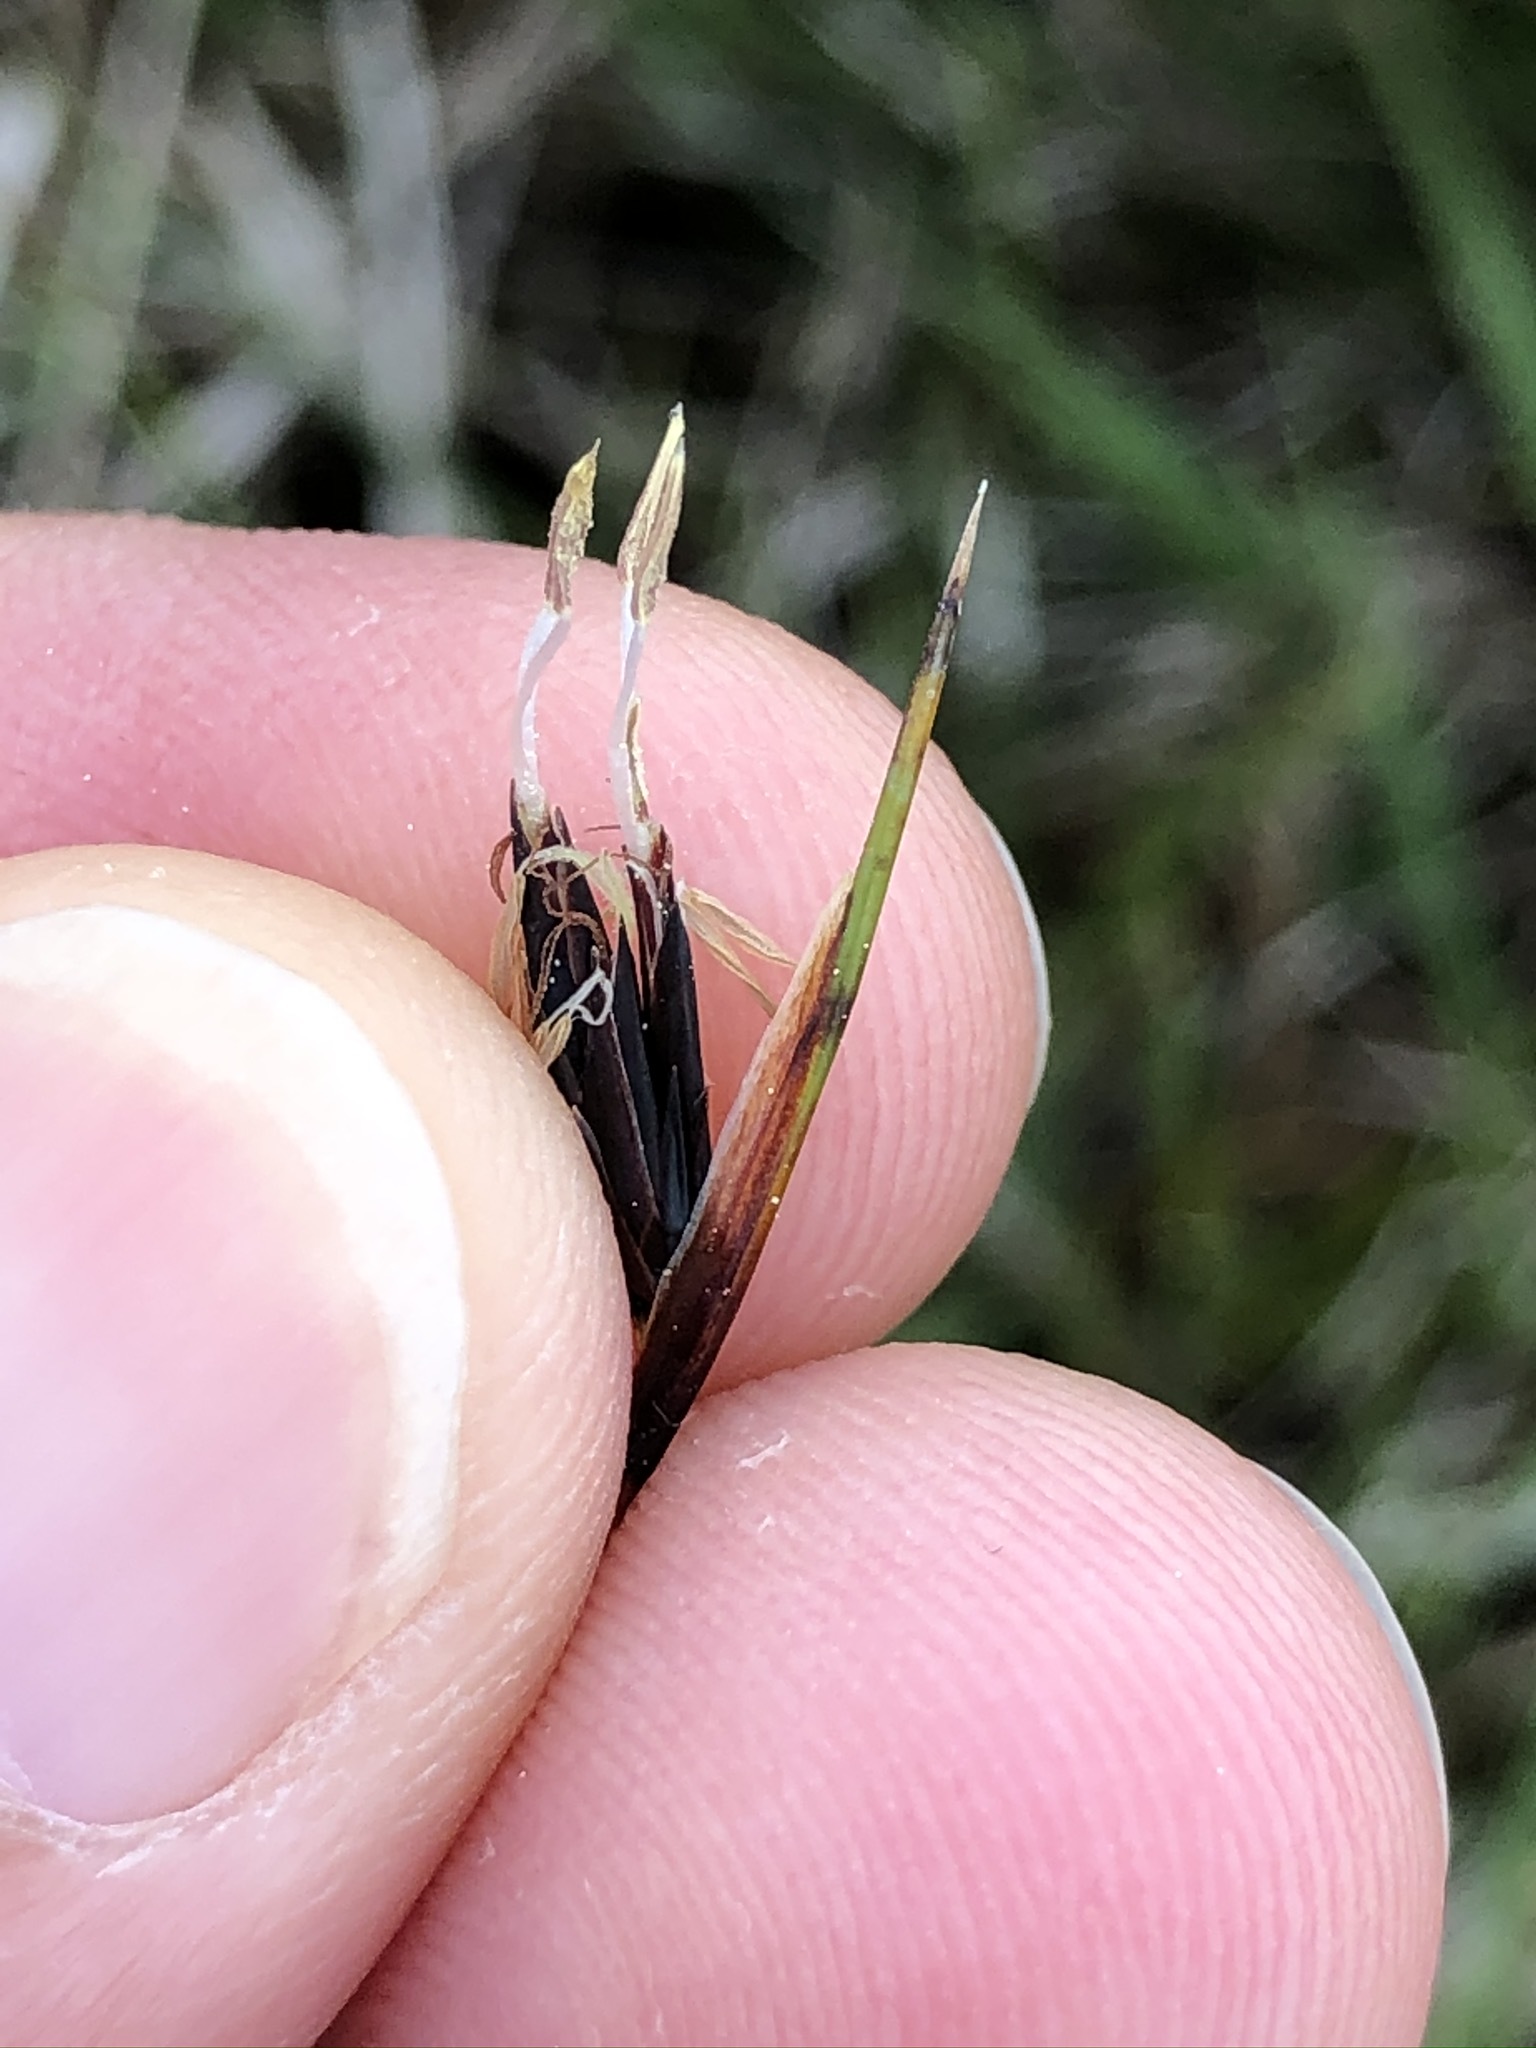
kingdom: Plantae
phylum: Tracheophyta
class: Liliopsida
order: Poales
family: Cyperaceae
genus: Schoenus
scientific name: Schoenus ferrugineus
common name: Brown bog-rush
